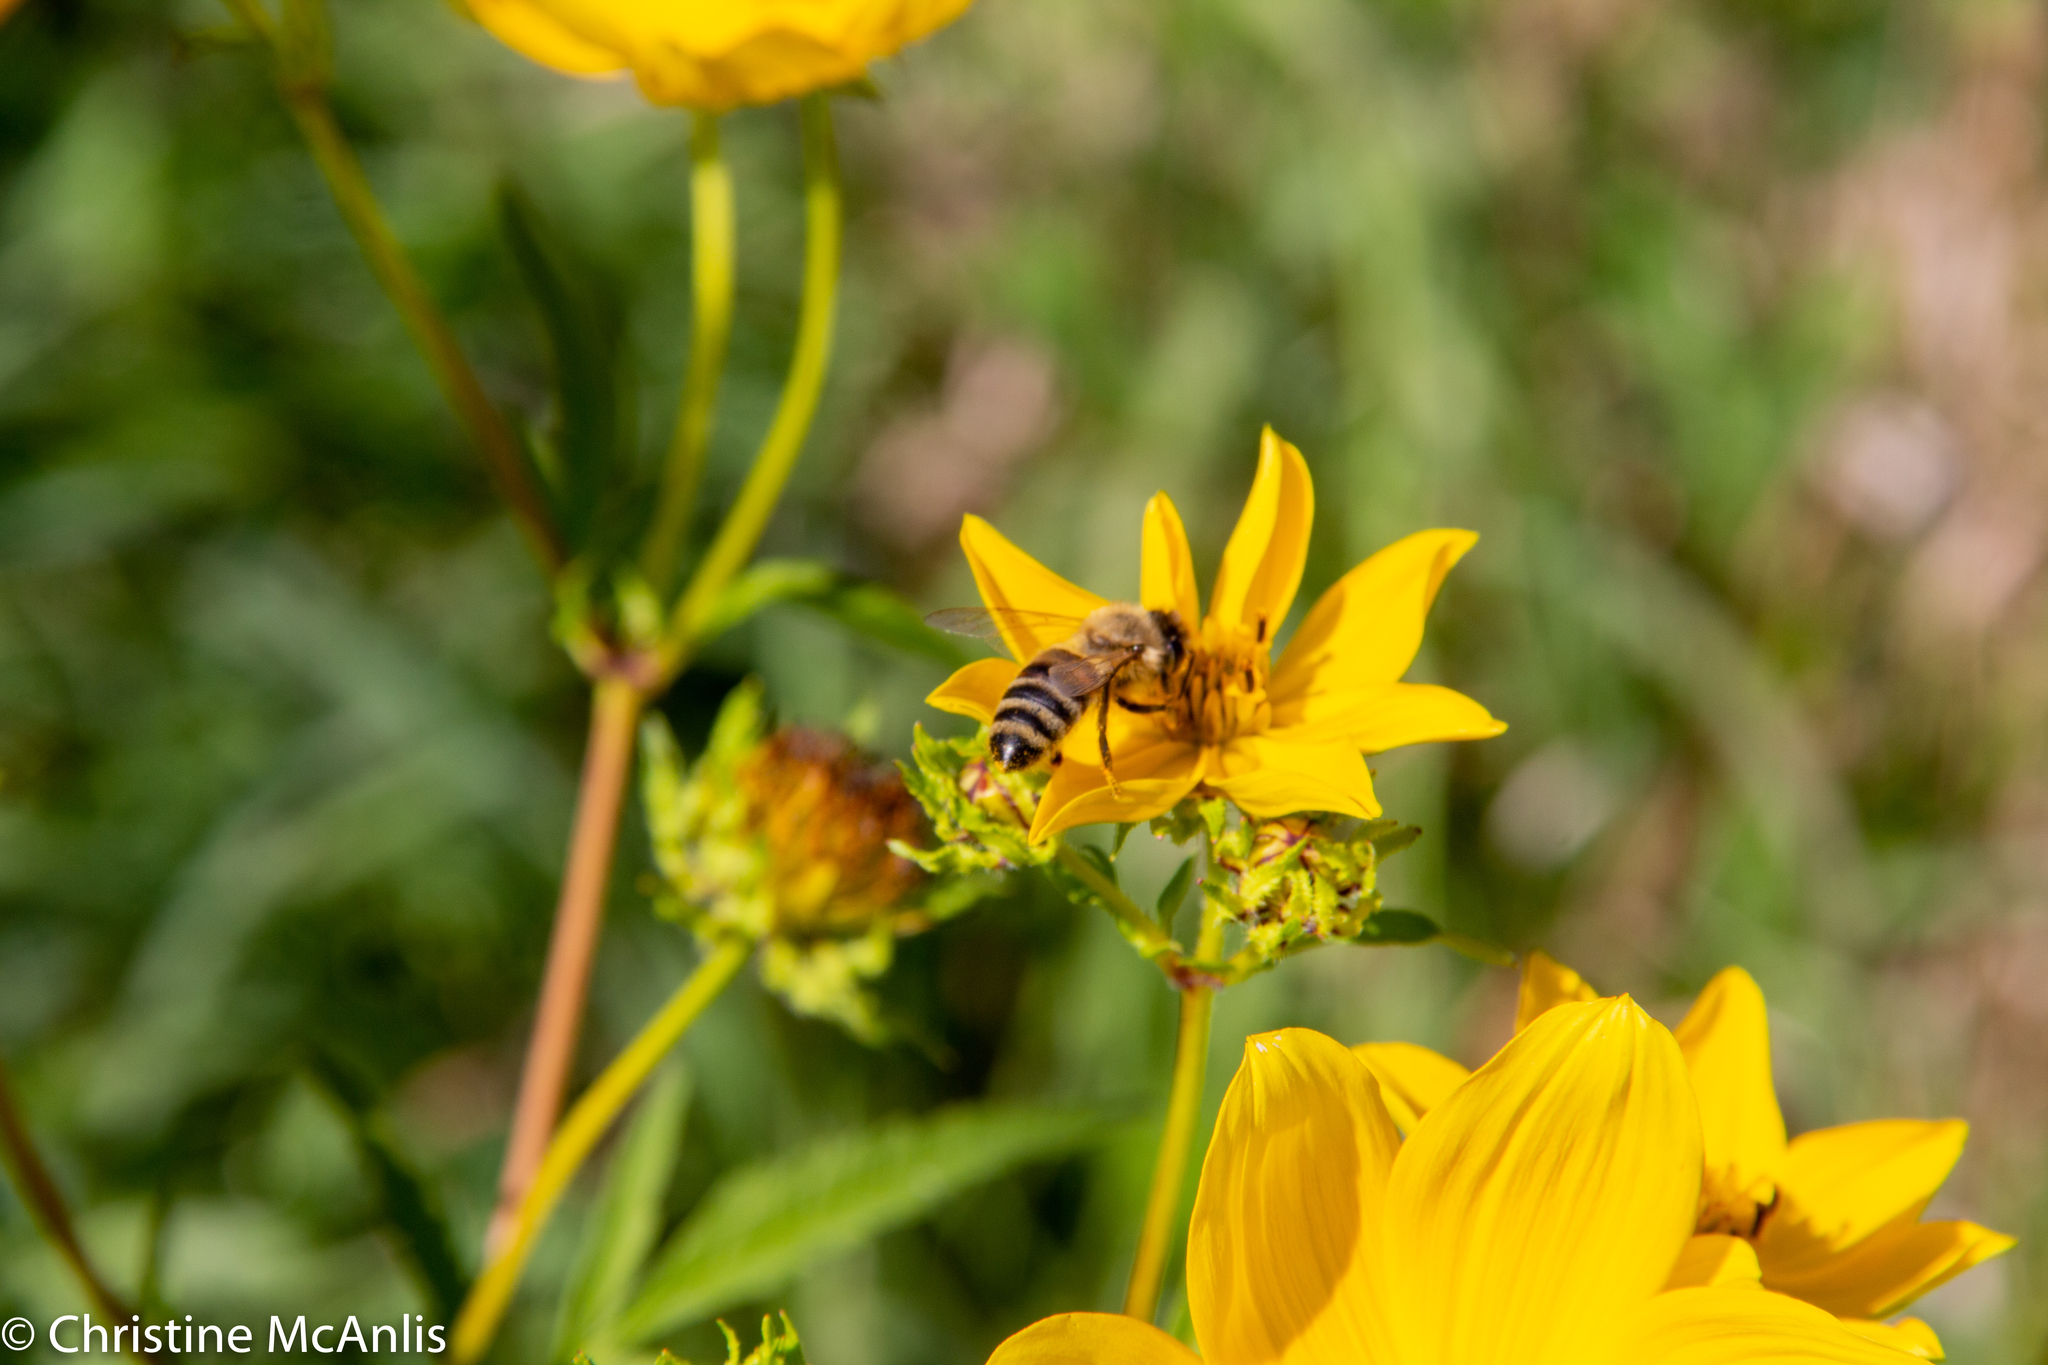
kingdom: Animalia
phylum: Arthropoda
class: Insecta
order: Hymenoptera
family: Apidae
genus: Apis
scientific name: Apis mellifera
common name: Honey bee
